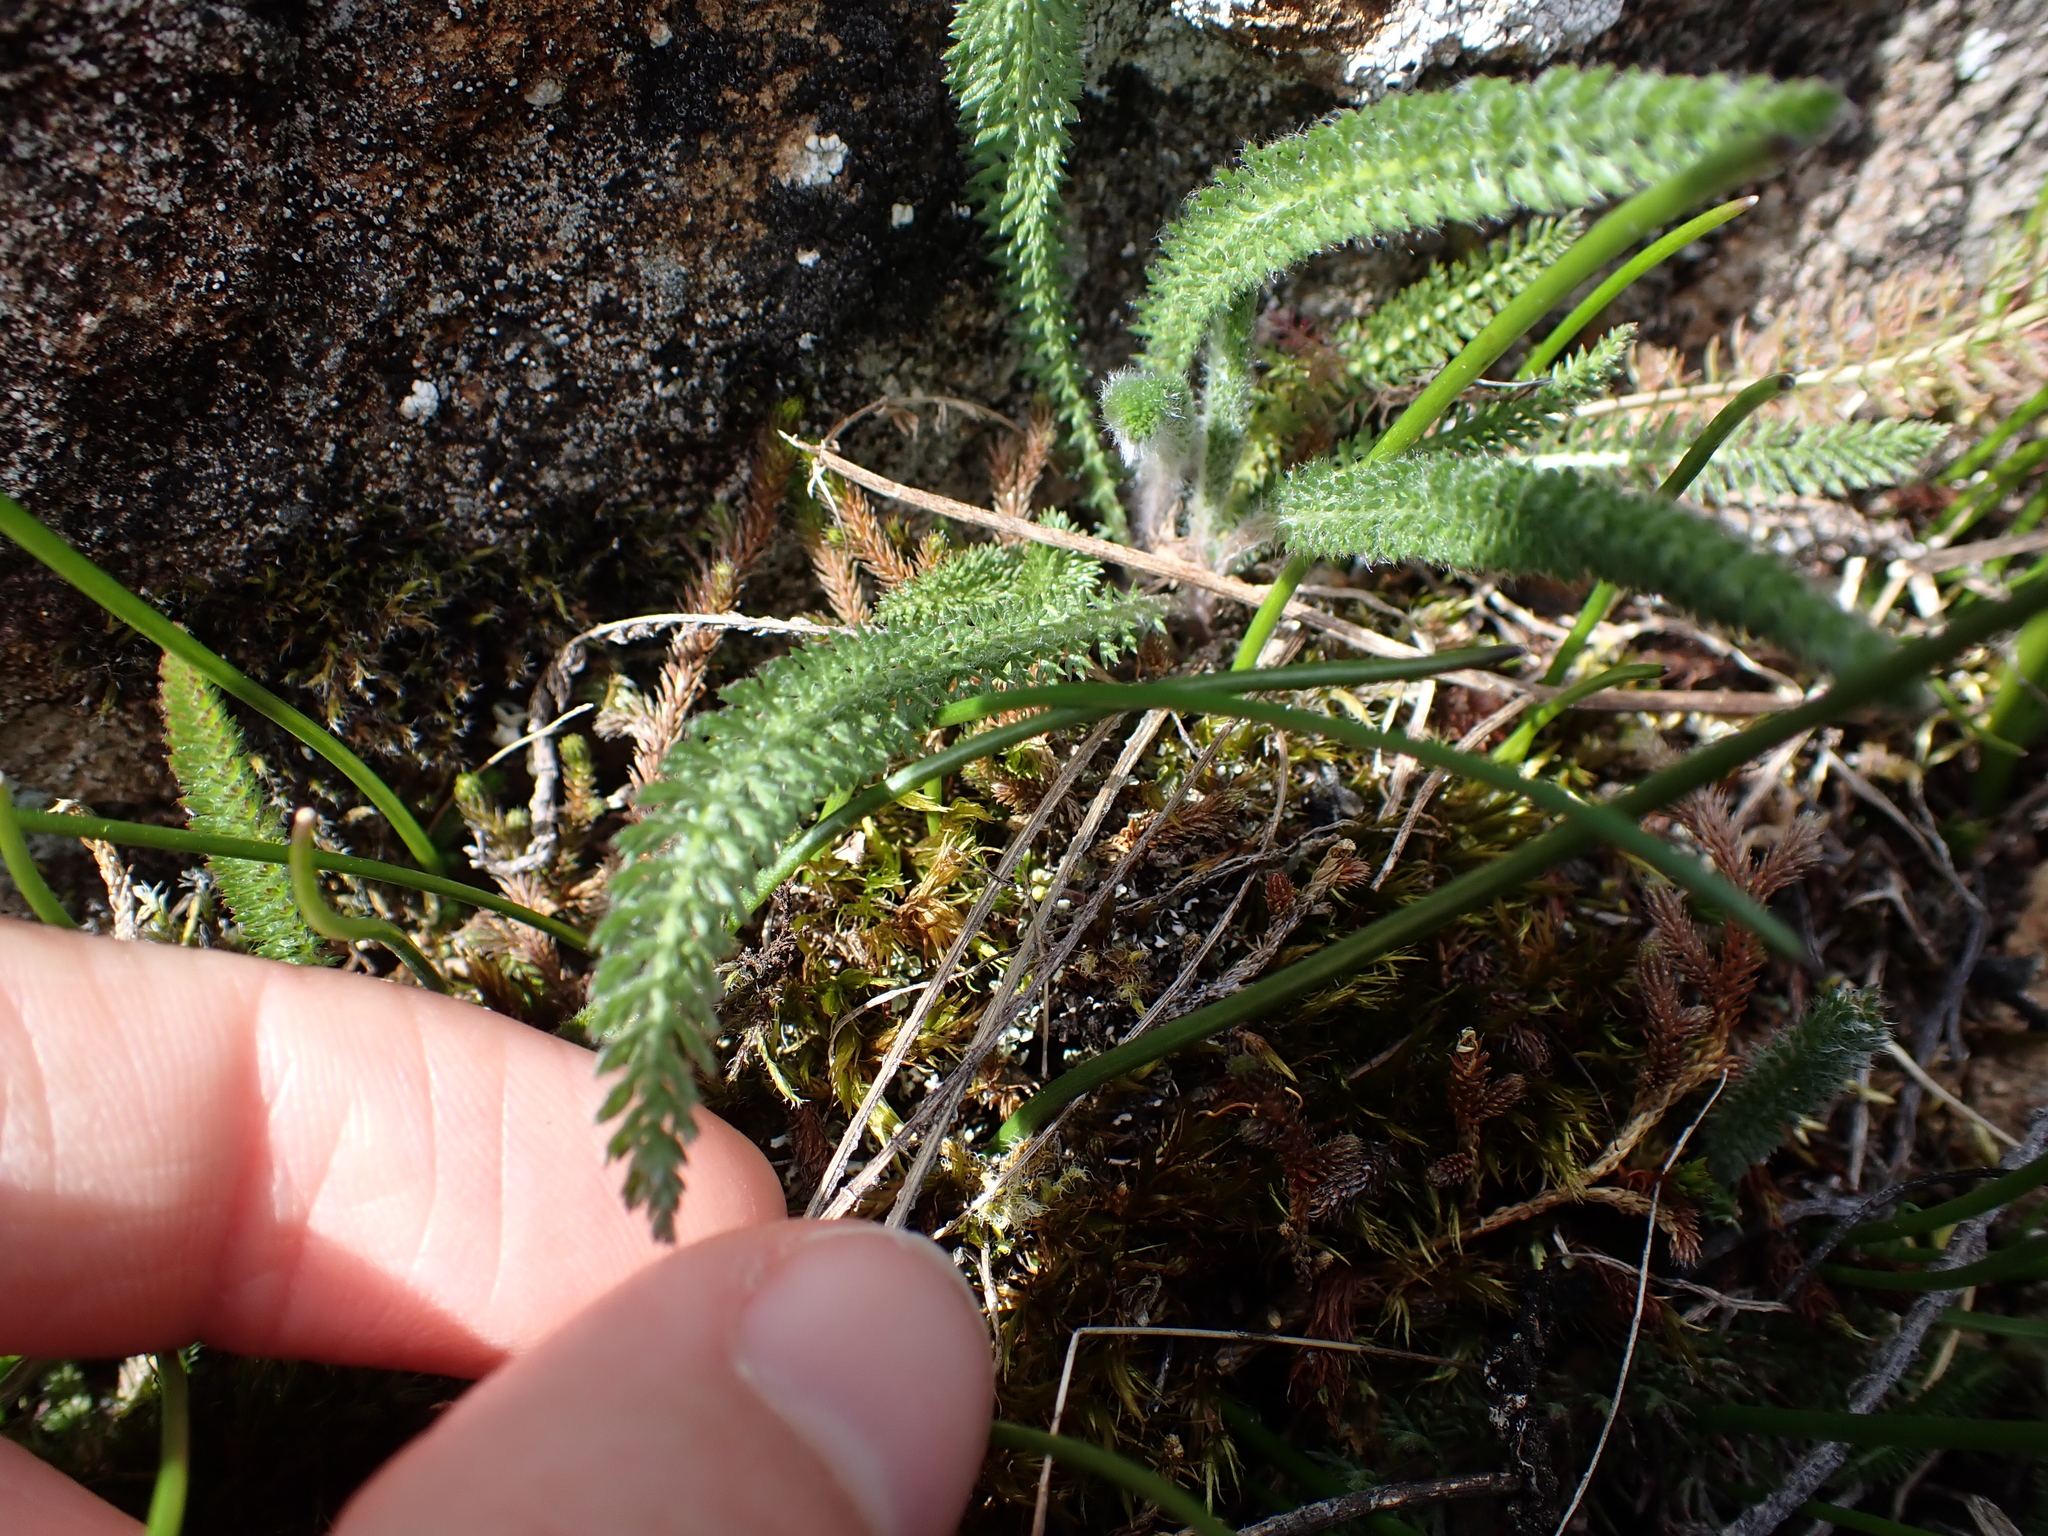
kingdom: Plantae
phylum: Tracheophyta
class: Magnoliopsida
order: Asterales
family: Asteraceae
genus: Achillea
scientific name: Achillea millefolium
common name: Yarrow
